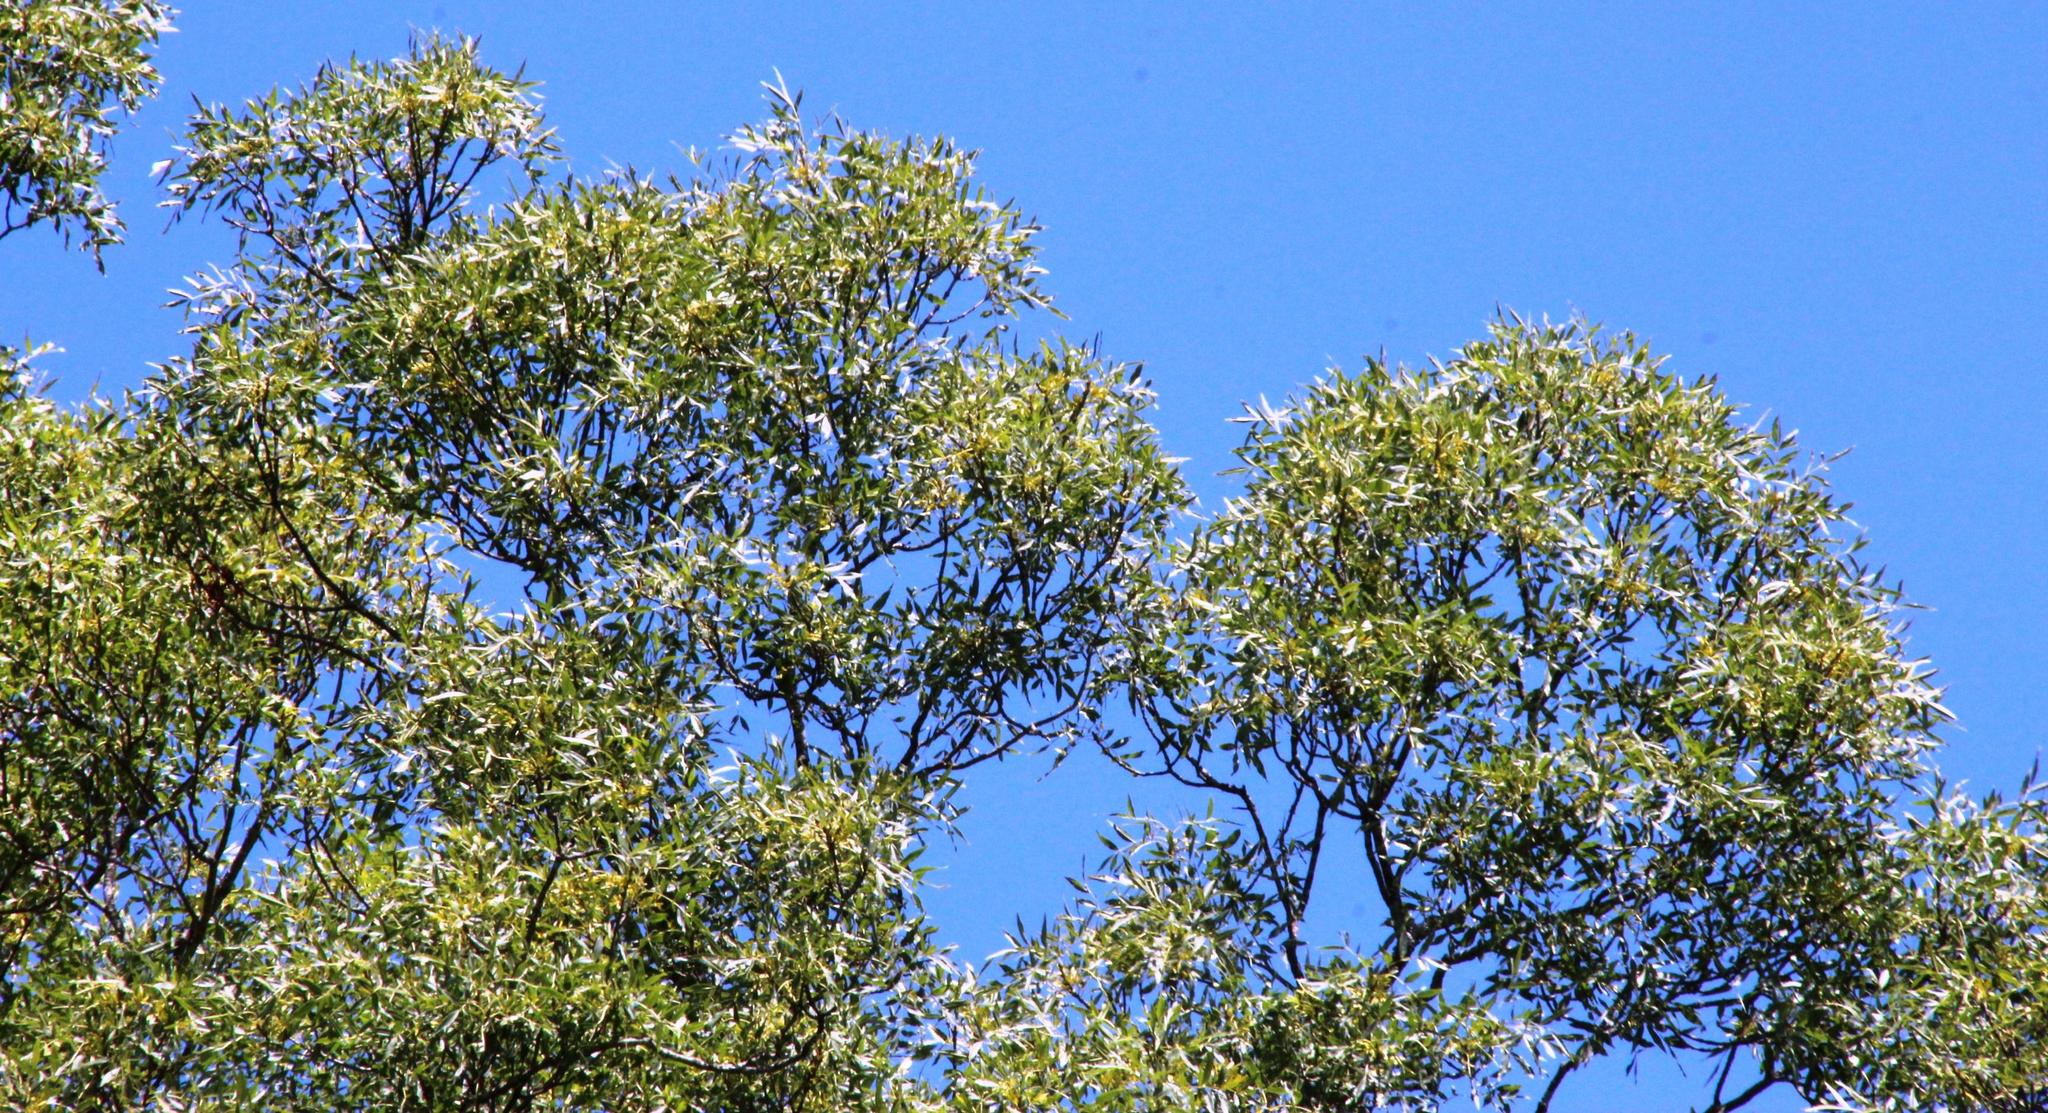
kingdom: Plantae
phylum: Tracheophyta
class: Magnoliopsida
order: Lamiales
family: Oleaceae
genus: Fraxinus
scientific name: Fraxinus angustifolia
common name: Narrow-leafed ash
